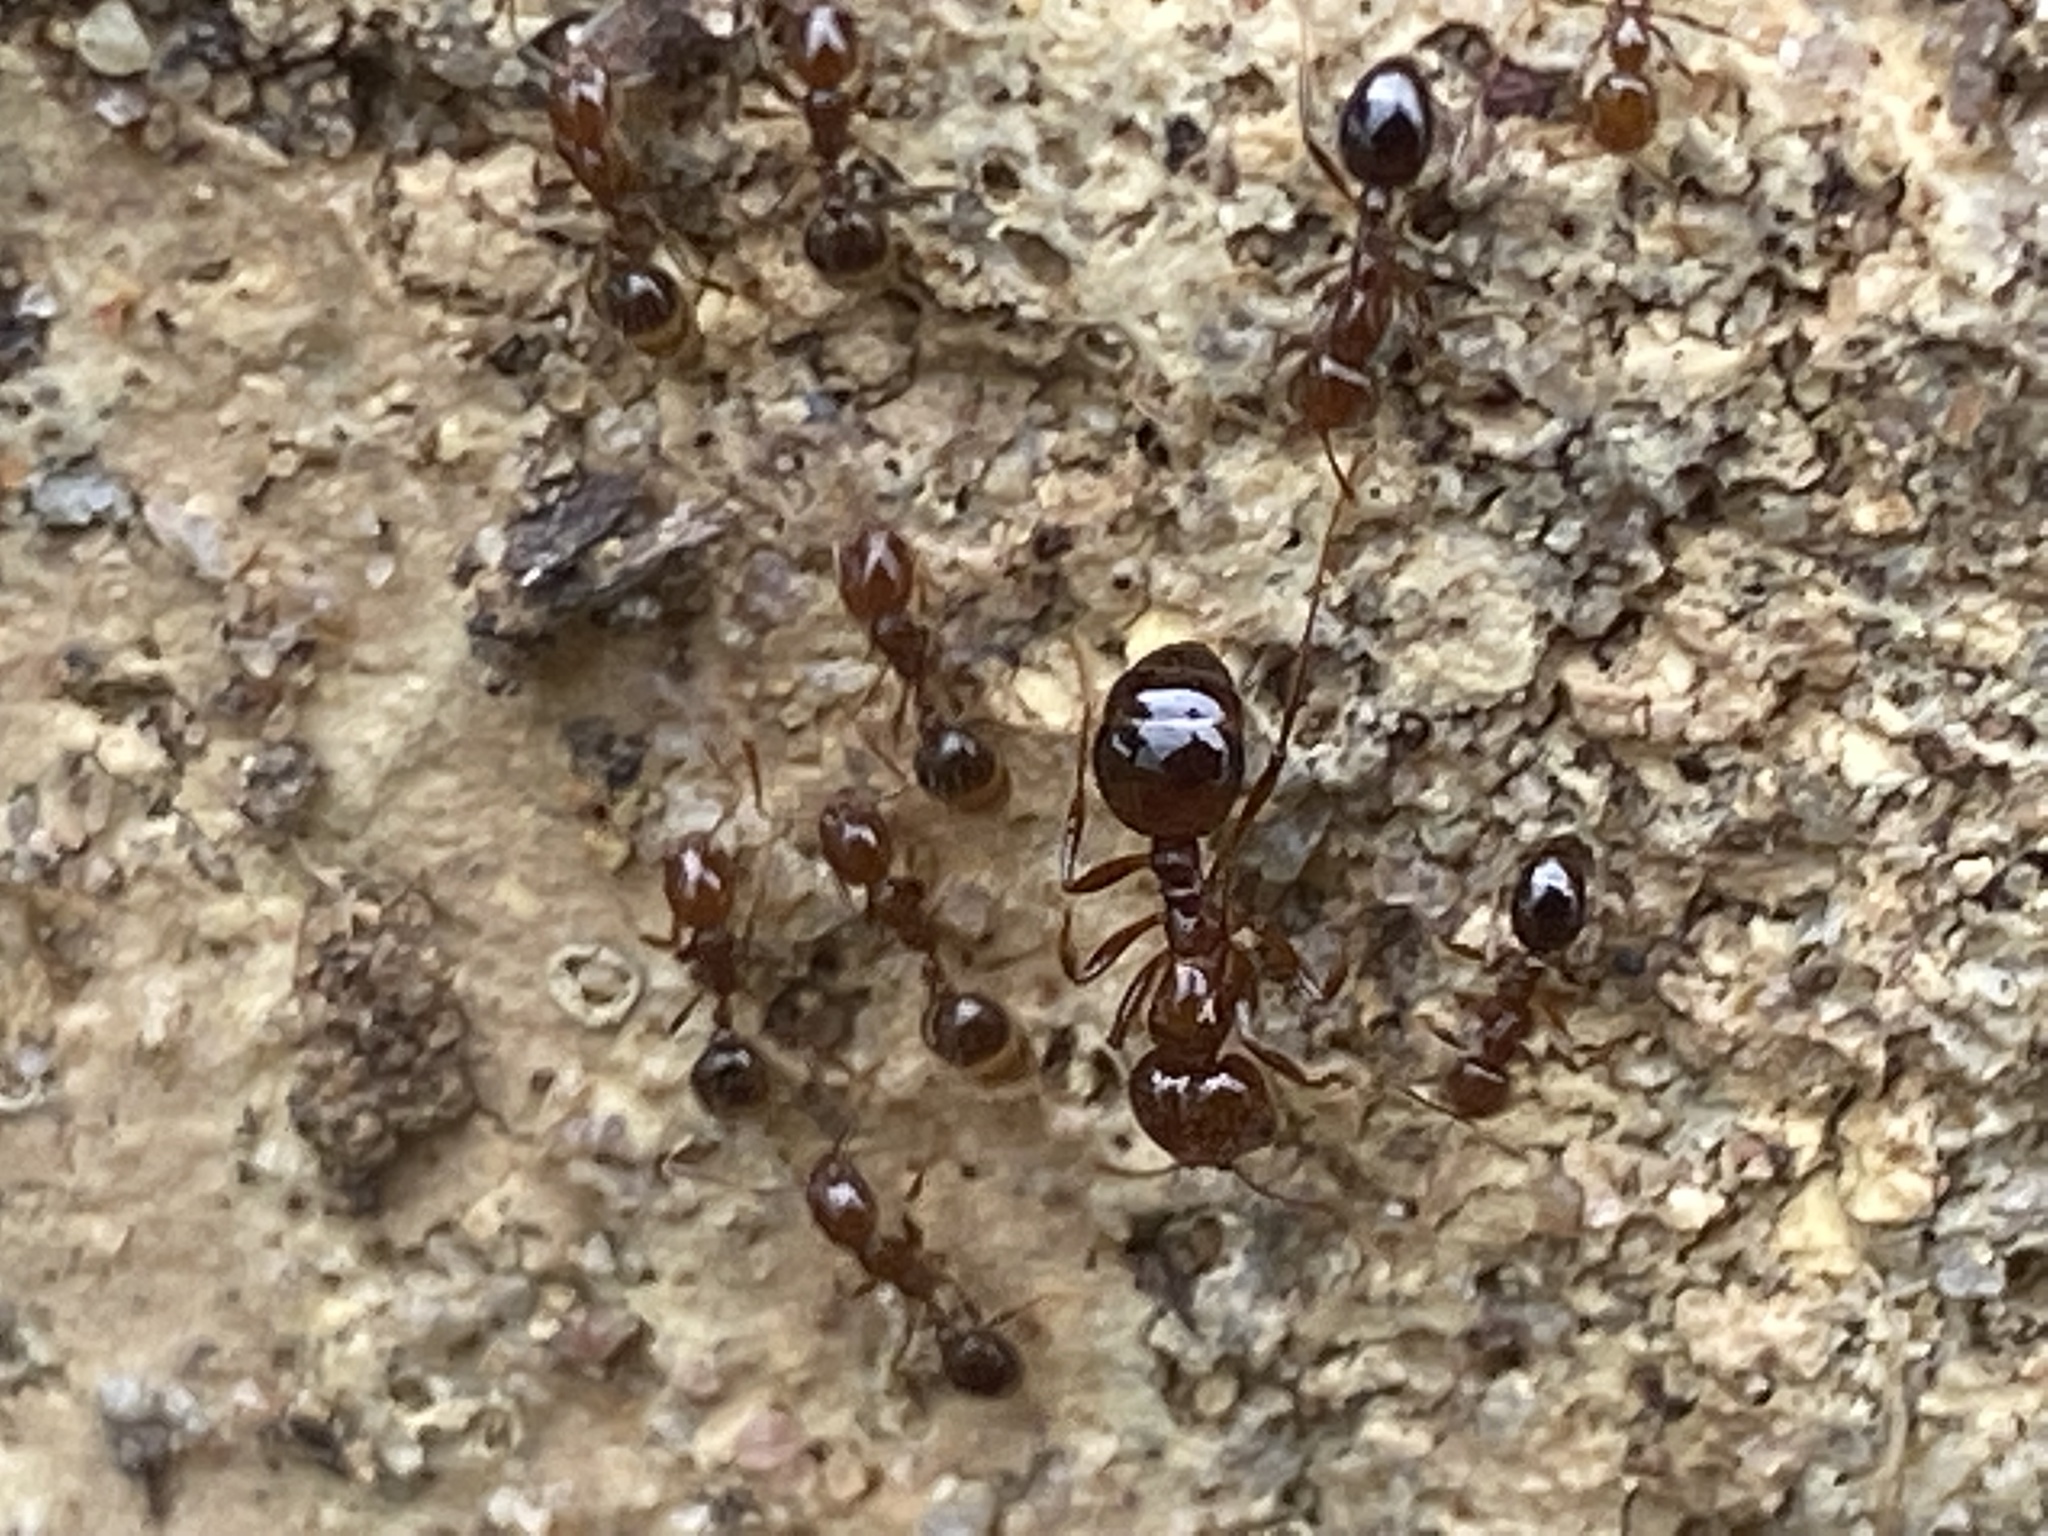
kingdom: Animalia
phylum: Arthropoda
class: Insecta
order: Hymenoptera
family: Formicidae
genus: Solenopsis
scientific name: Solenopsis invicta
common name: Red imported fire ant
